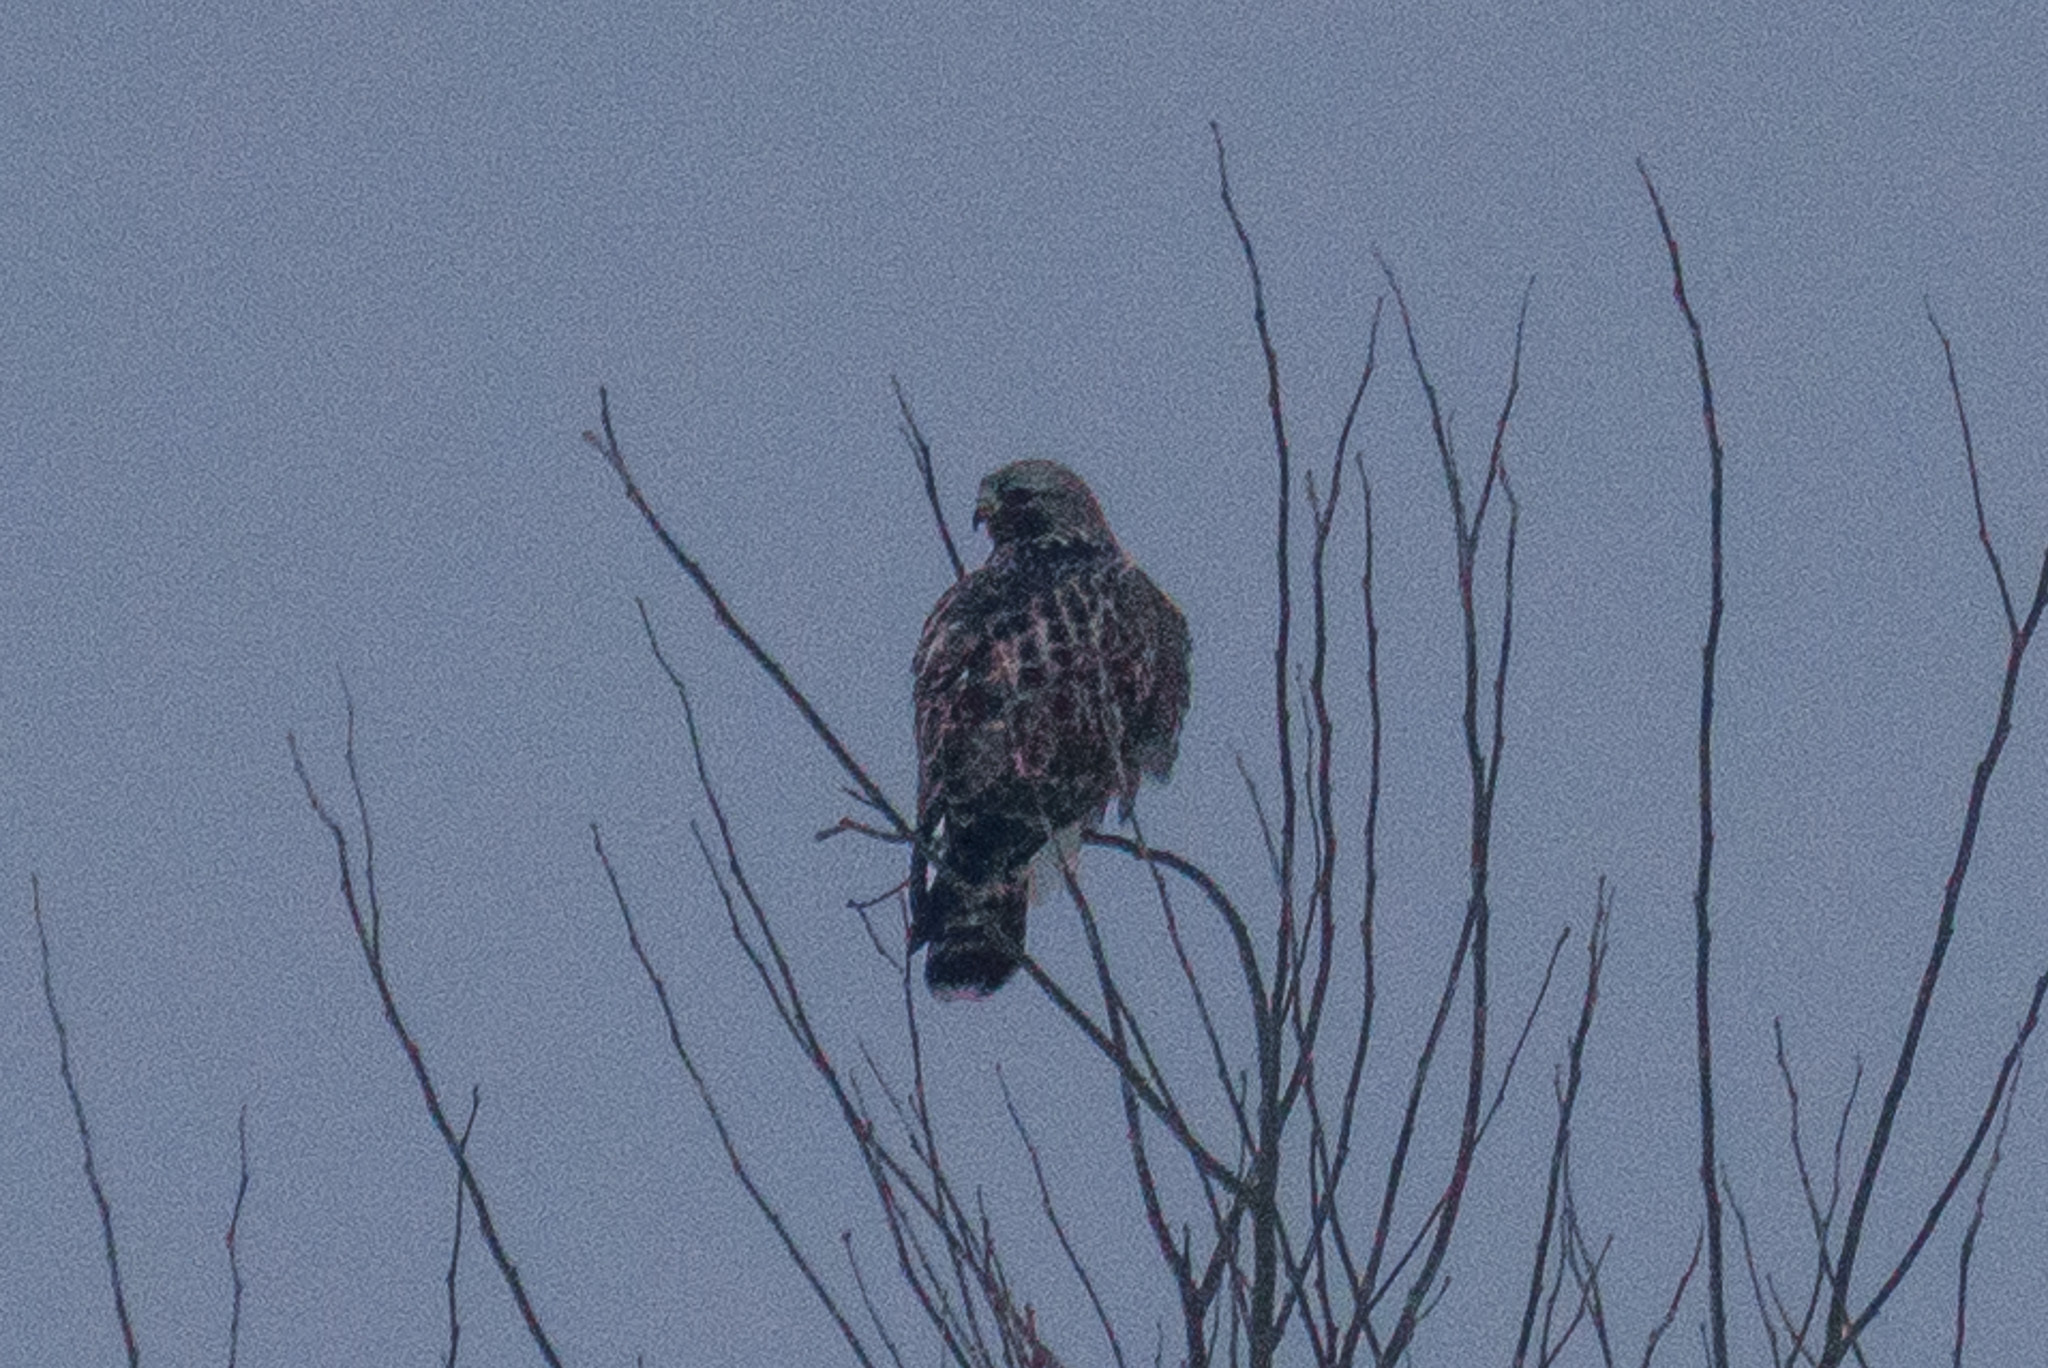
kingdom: Animalia
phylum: Chordata
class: Aves
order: Accipitriformes
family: Accipitridae
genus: Buteo
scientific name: Buteo lagopus
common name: Rough-legged buzzard
